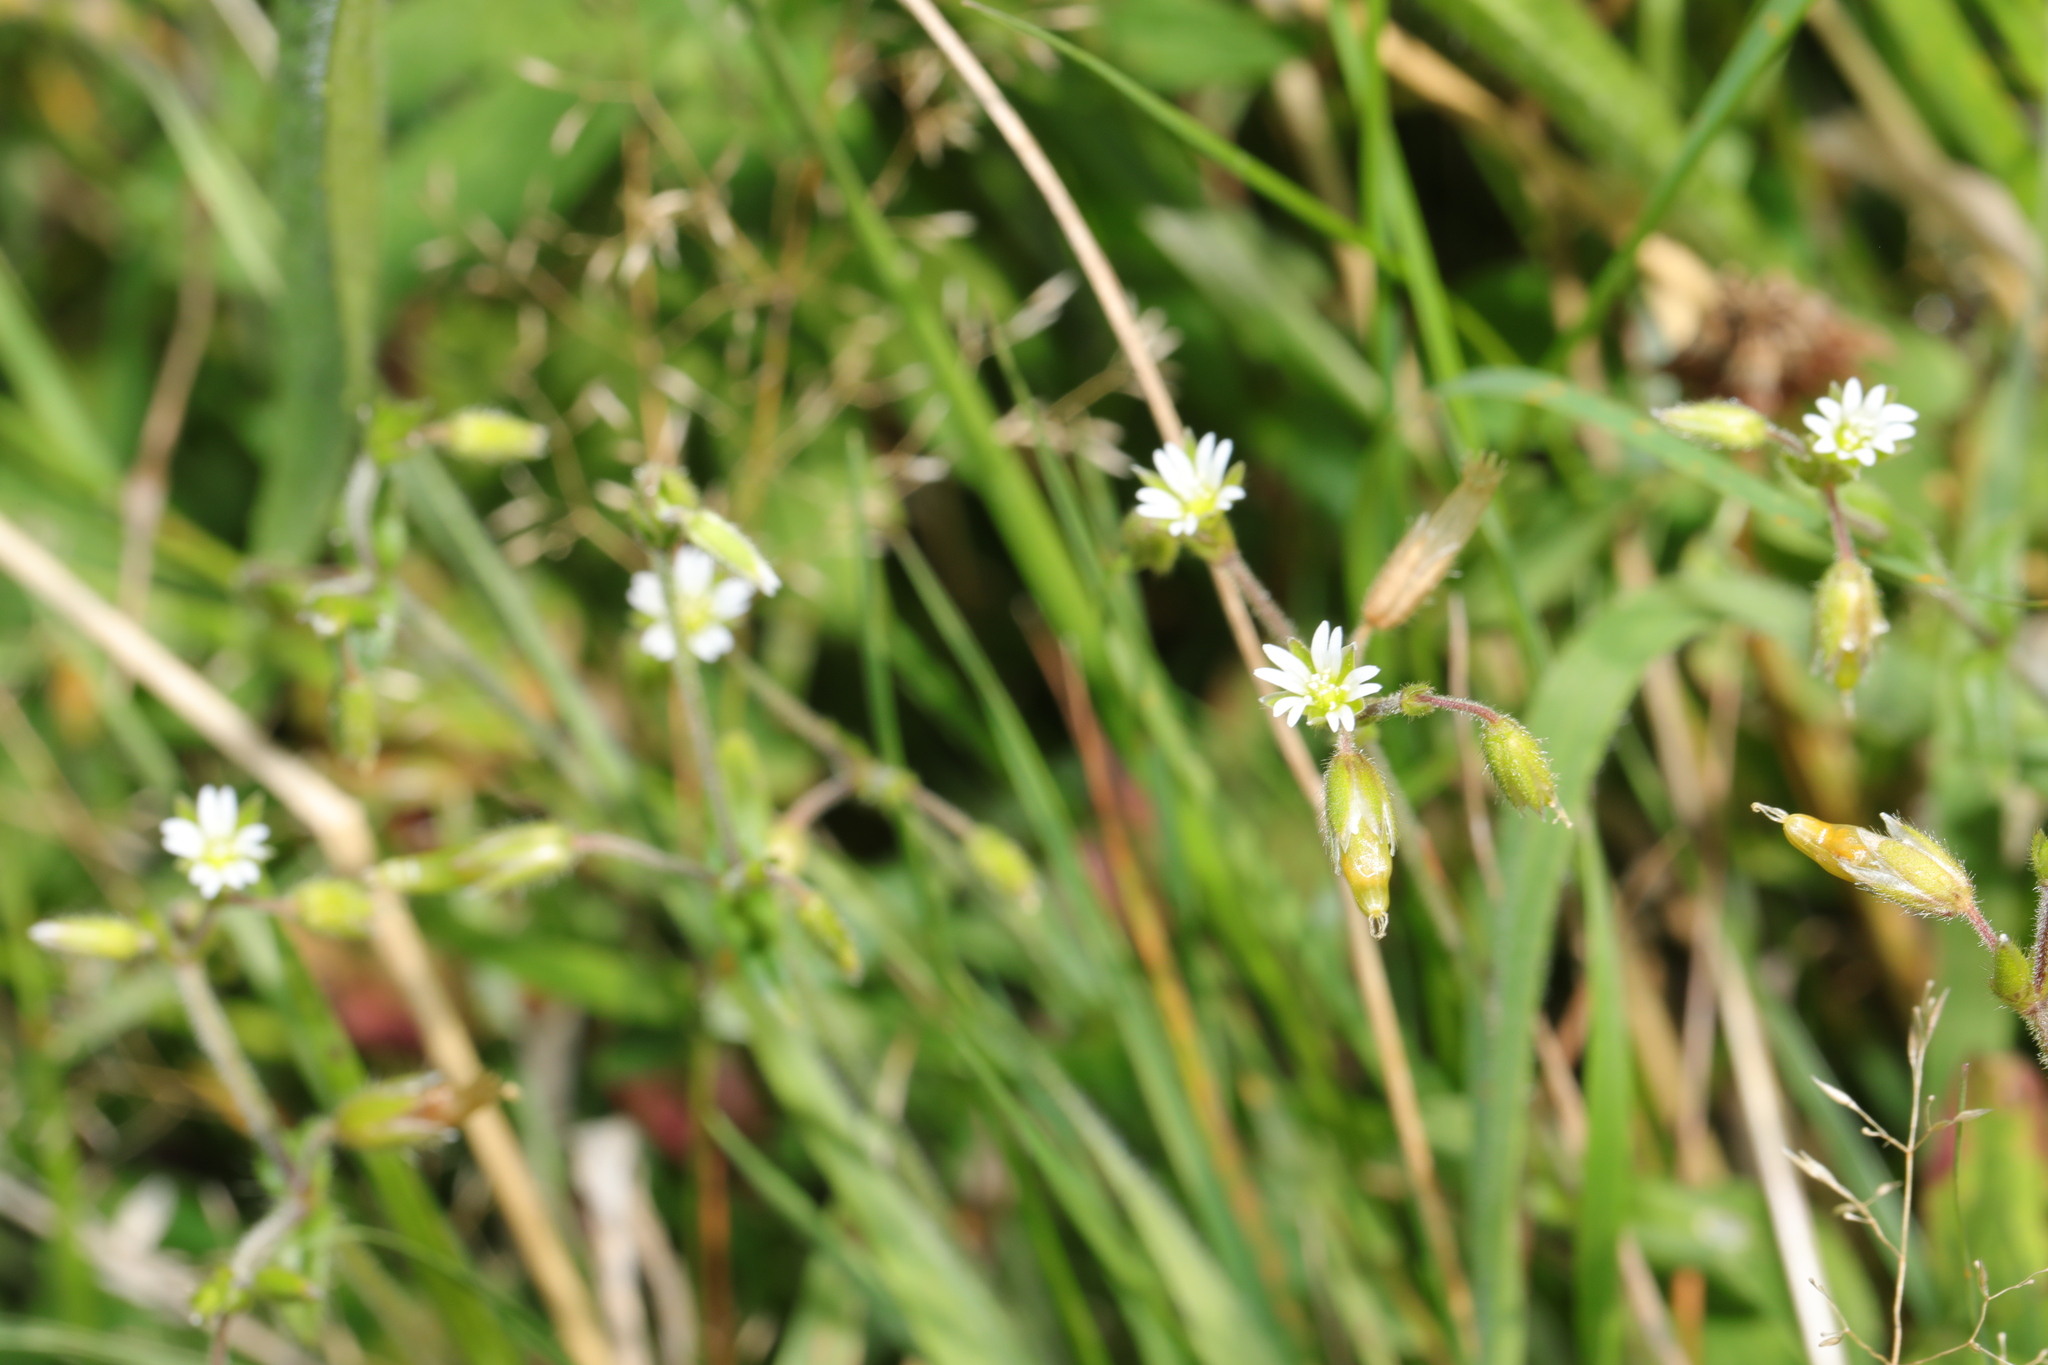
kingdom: Plantae
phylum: Tracheophyta
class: Magnoliopsida
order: Caryophyllales
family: Caryophyllaceae
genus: Cerastium
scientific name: Cerastium fontanum
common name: Common mouse-ear
